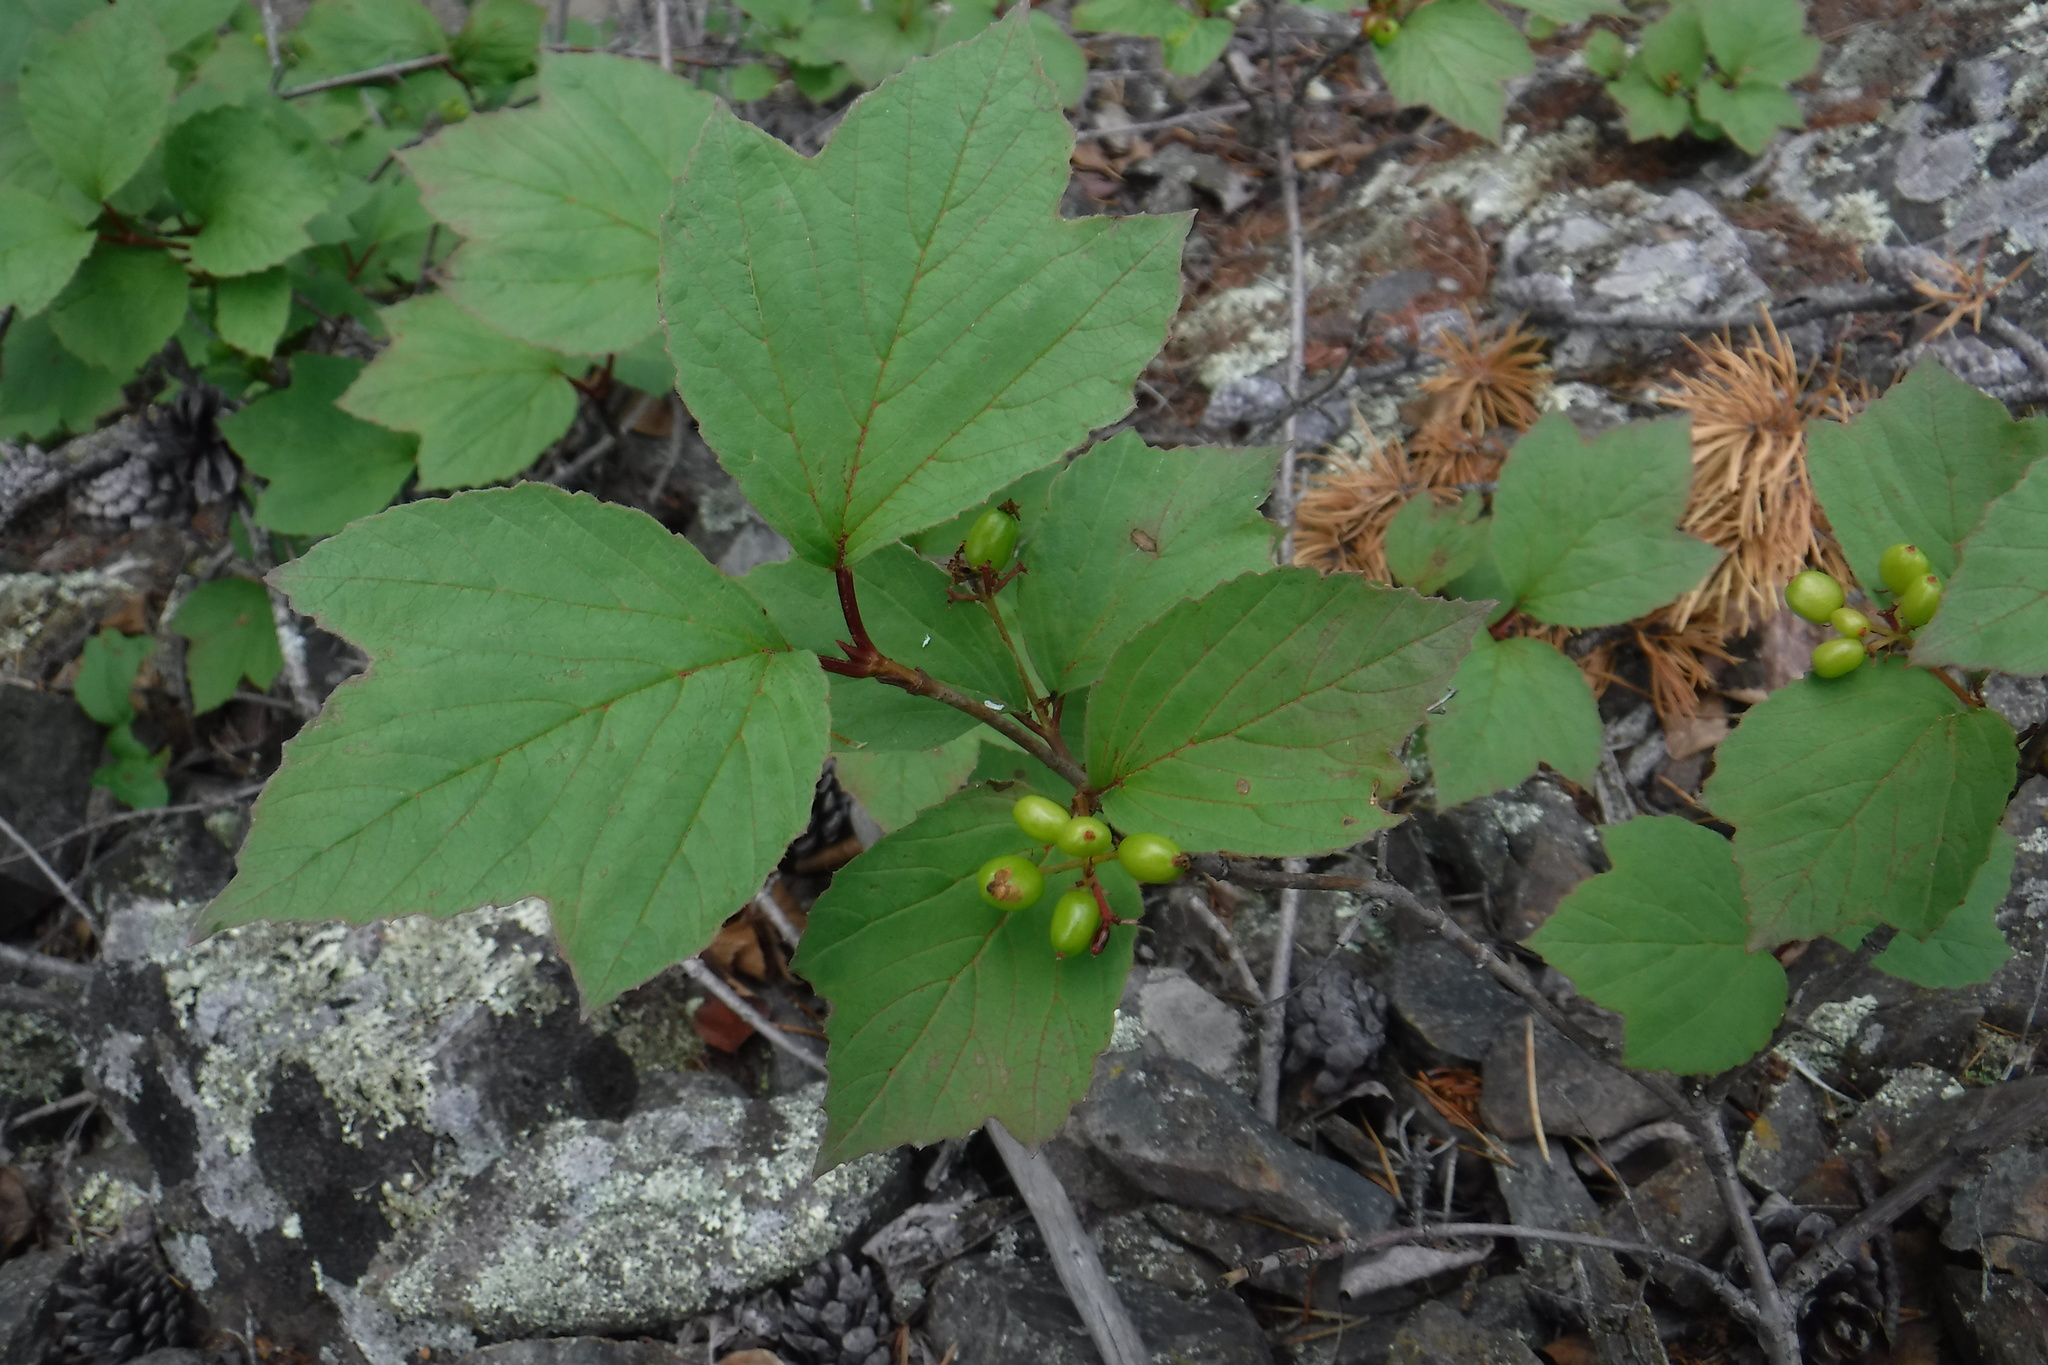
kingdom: Plantae
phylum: Tracheophyta
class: Magnoliopsida
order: Dipsacales
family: Viburnaceae
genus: Viburnum
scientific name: Viburnum edule
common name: Mooseberry
